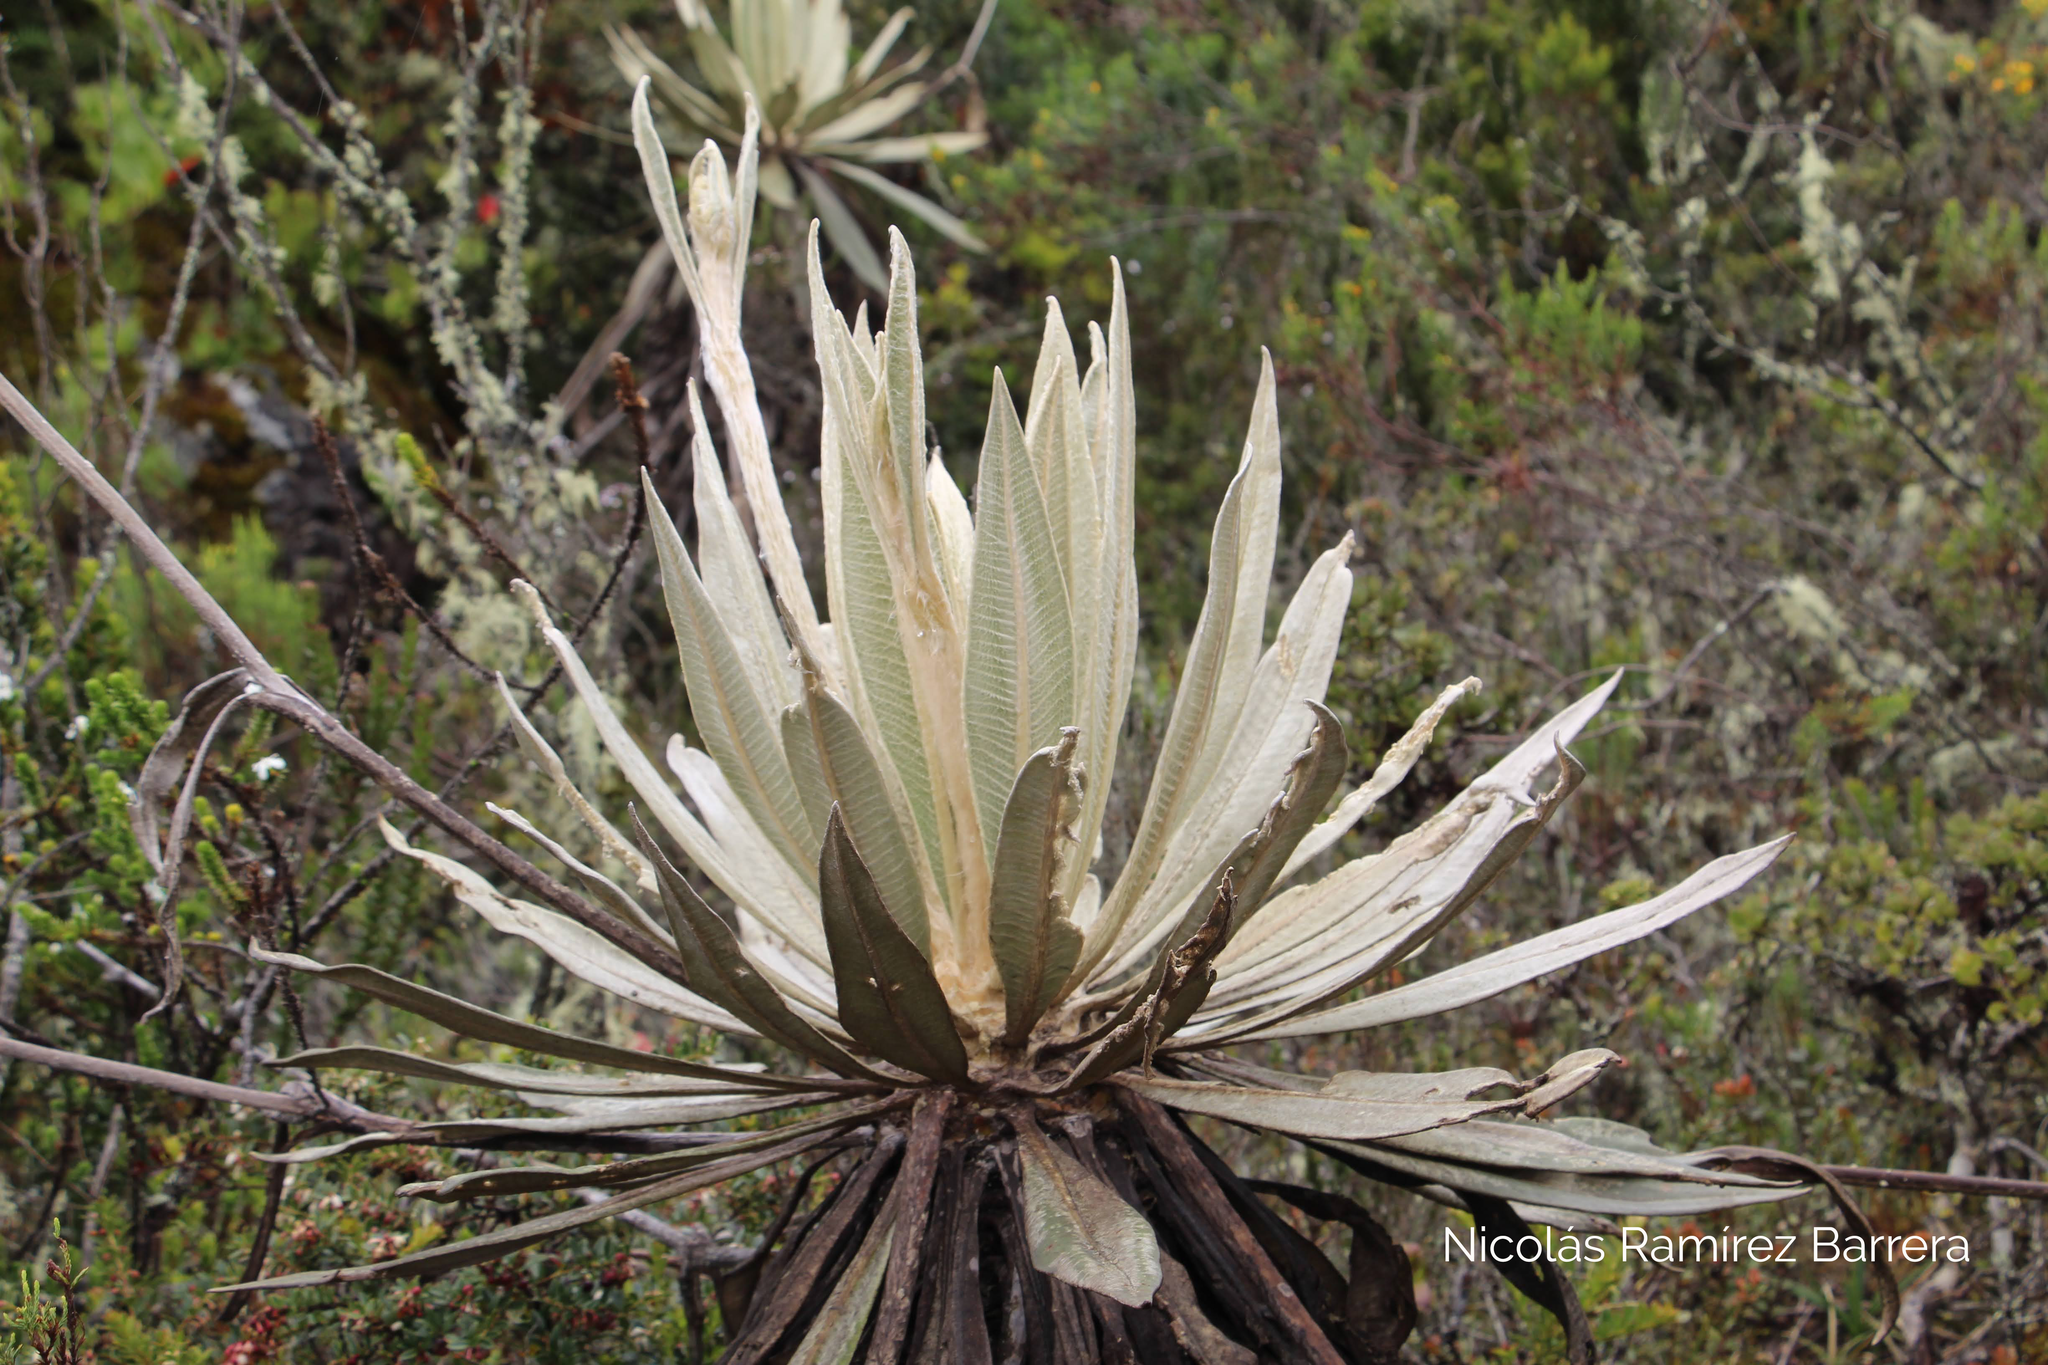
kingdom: Plantae
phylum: Tracheophyta
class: Magnoliopsida
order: Asterales
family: Asteraceae
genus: Espeletia
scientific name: Espeletia grandiflora
